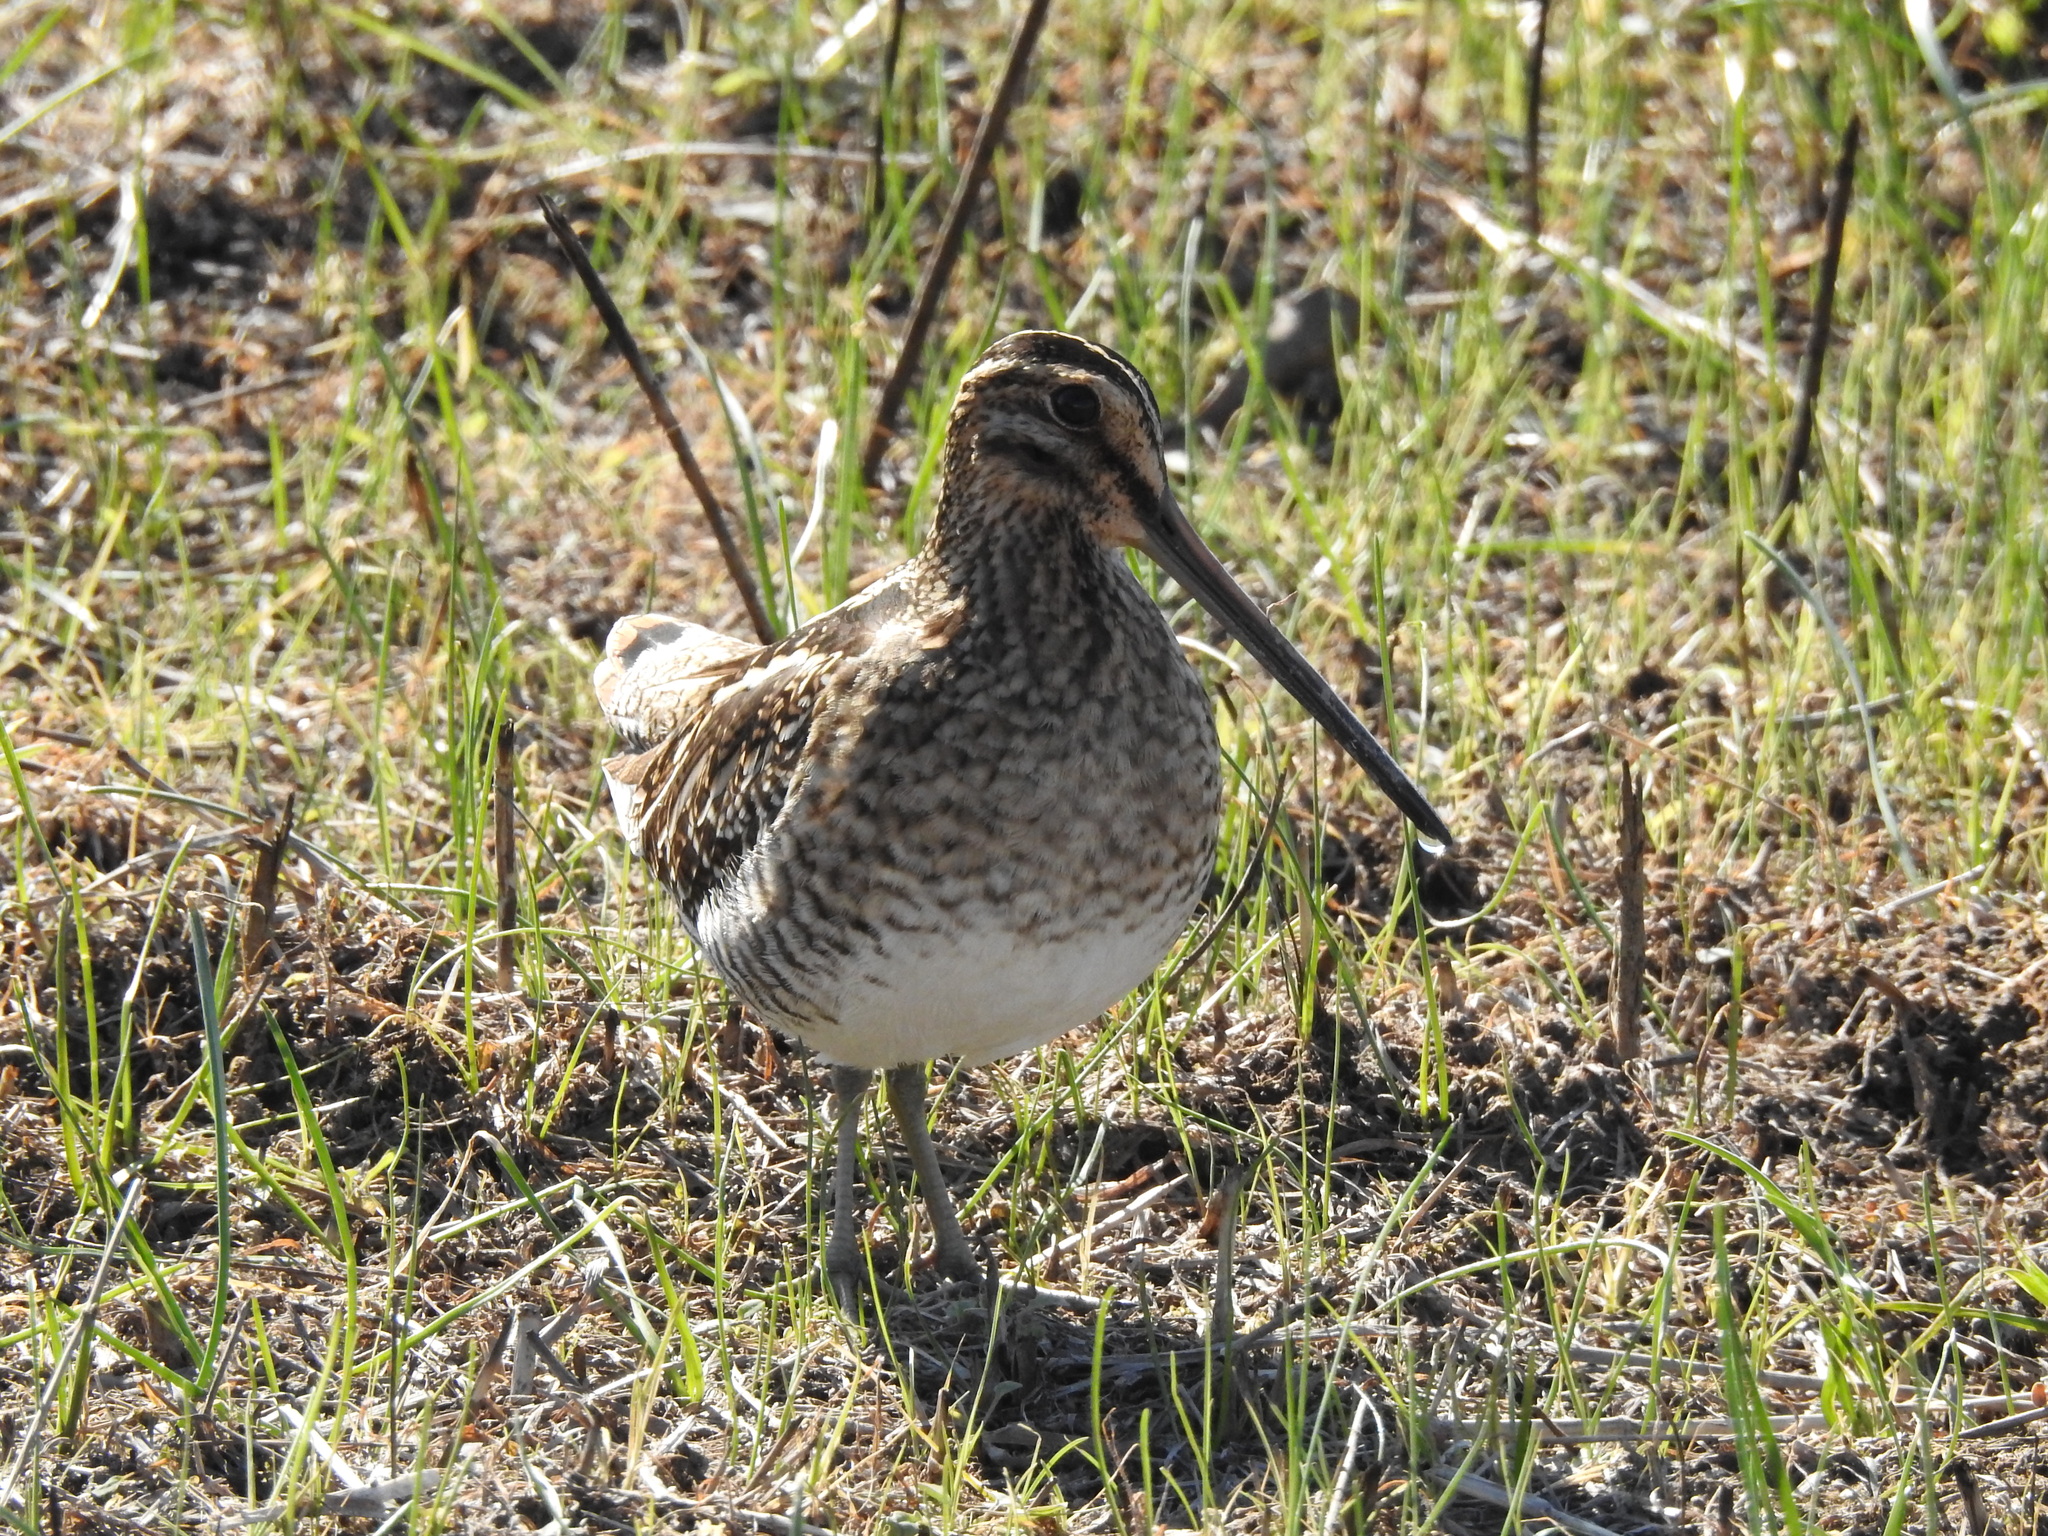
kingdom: Animalia
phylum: Chordata
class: Aves
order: Charadriiformes
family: Scolopacidae
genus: Gallinago
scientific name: Gallinago delicata
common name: Wilson's snipe
